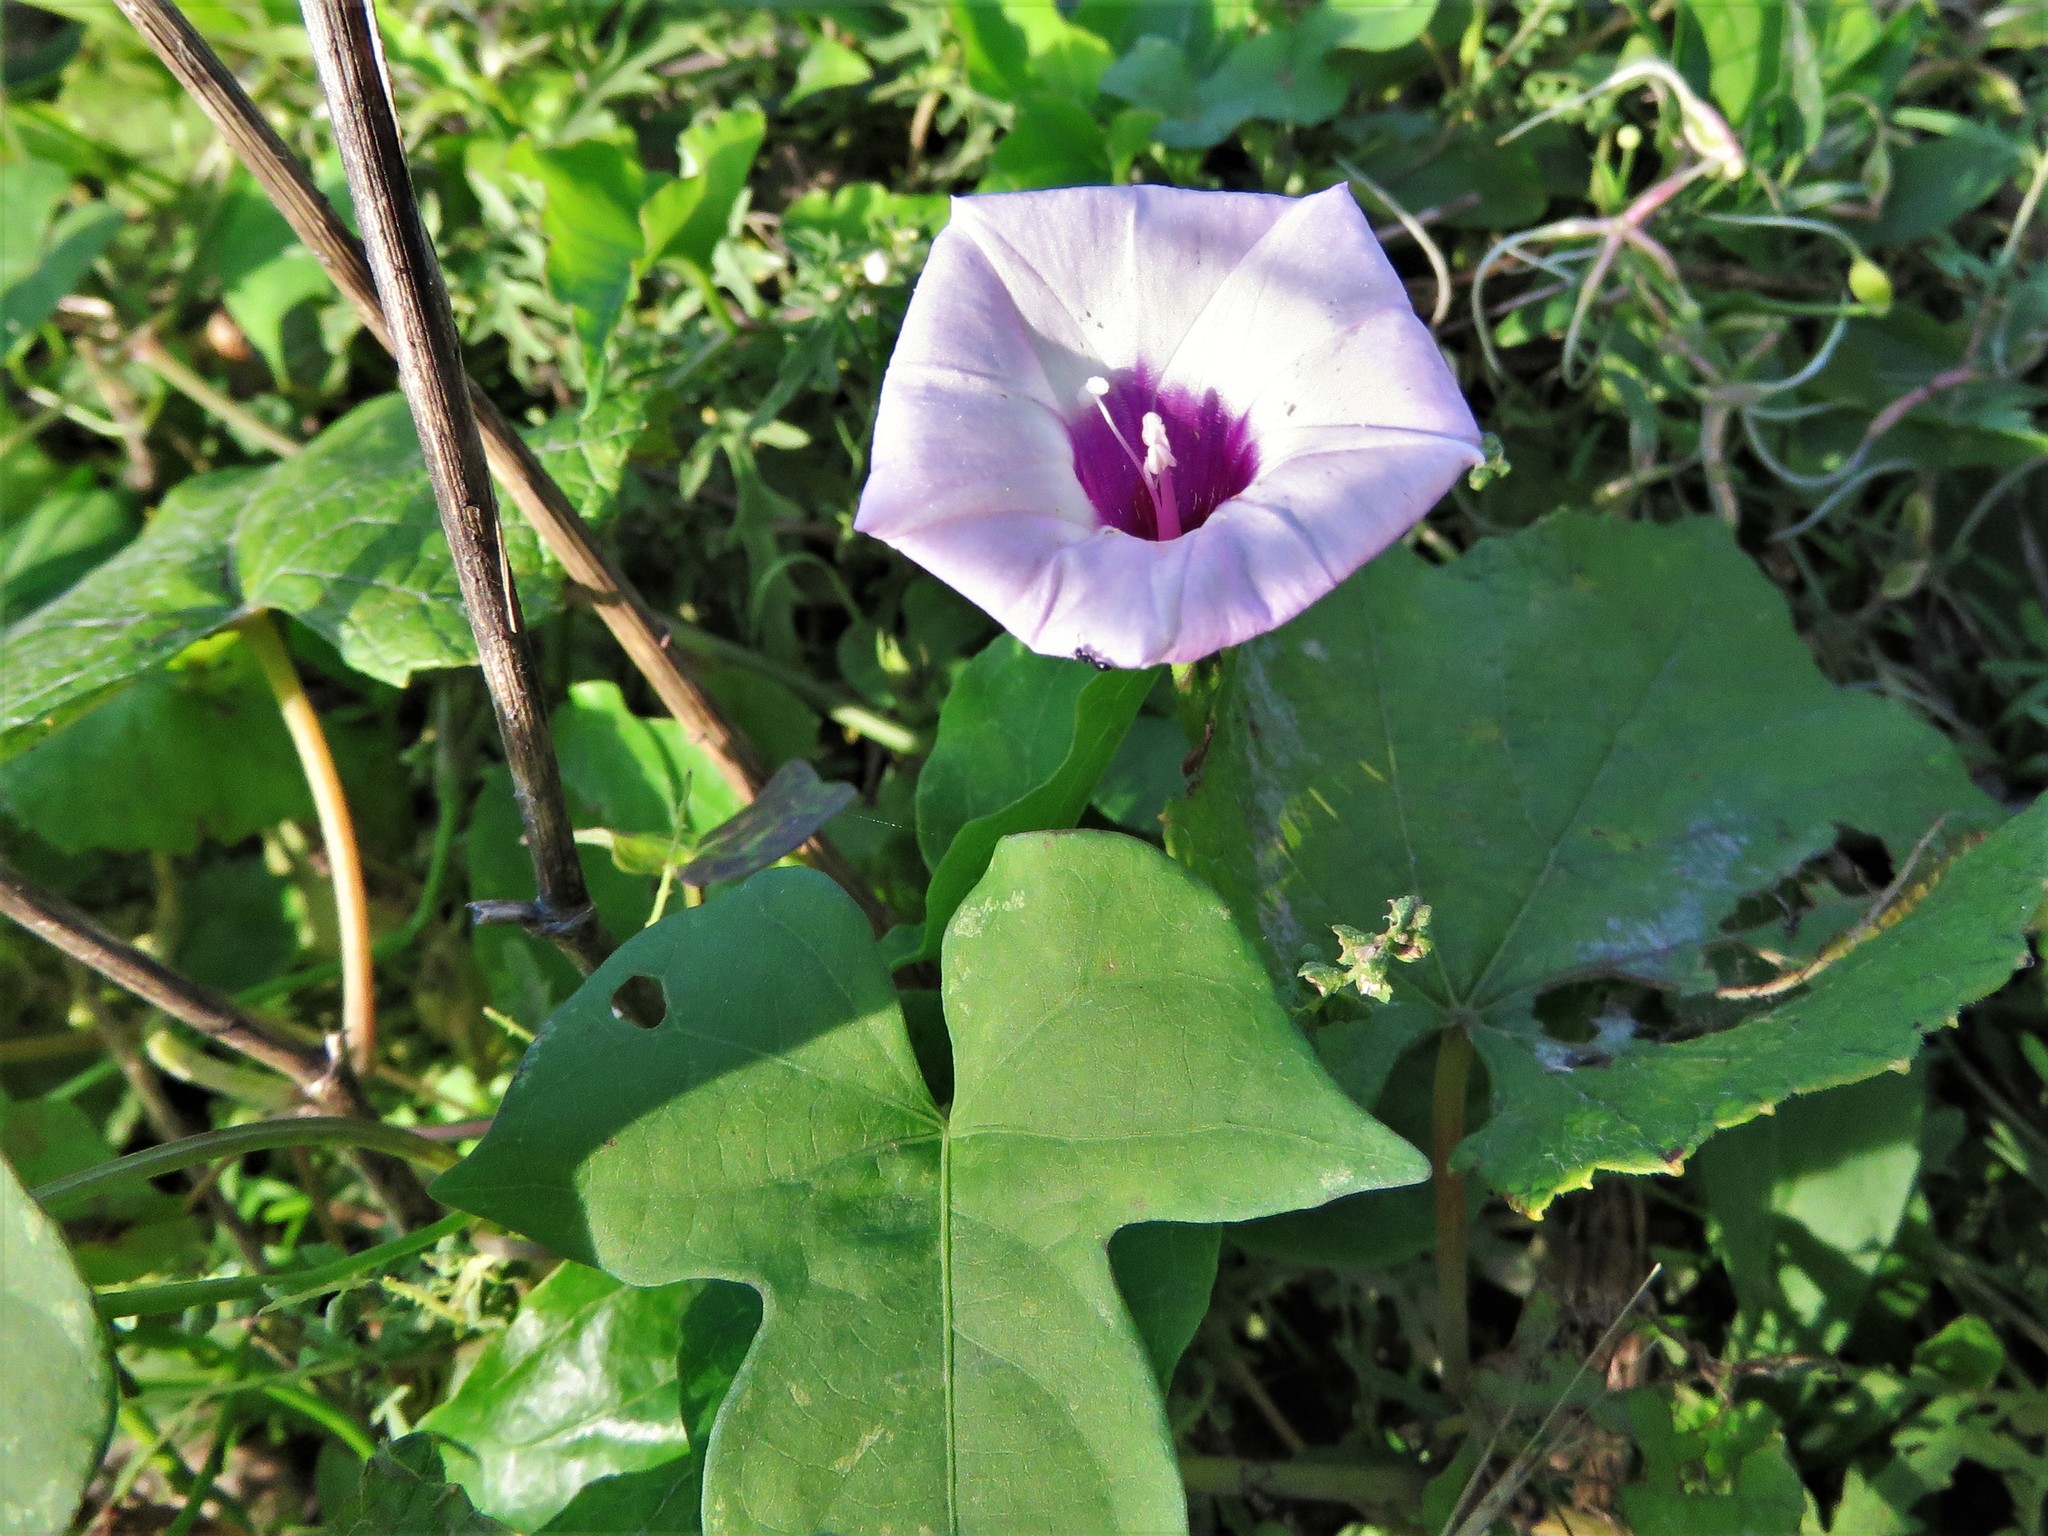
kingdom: Plantae
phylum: Tracheophyta
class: Magnoliopsida
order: Solanales
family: Convolvulaceae
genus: Ipomoea
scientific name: Ipomoea cordatotriloba
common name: Cotton morning glory
